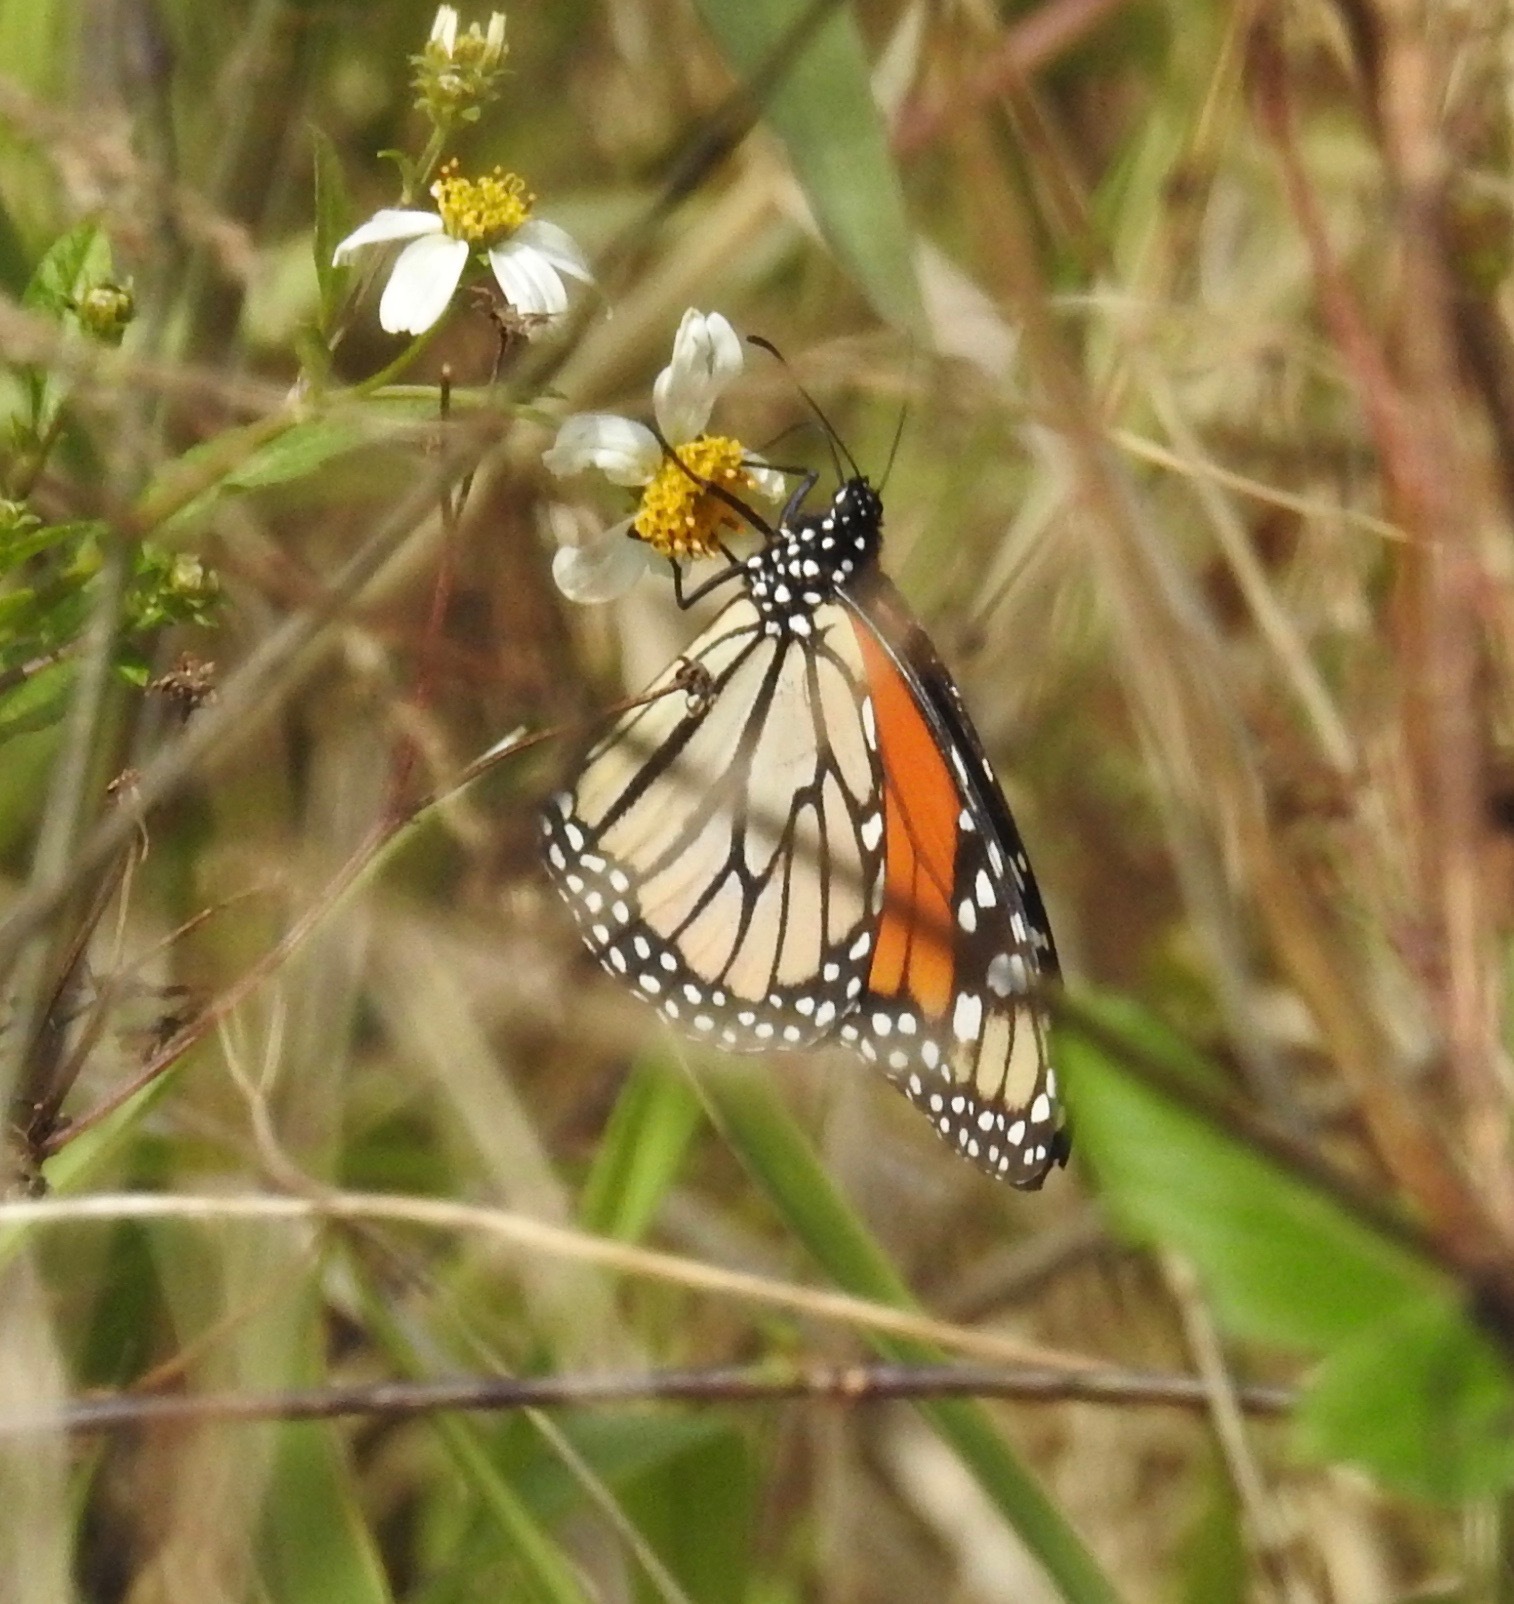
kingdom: Animalia
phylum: Arthropoda
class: Insecta
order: Lepidoptera
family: Nymphalidae
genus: Danaus
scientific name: Danaus plexippus
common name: Monarch
